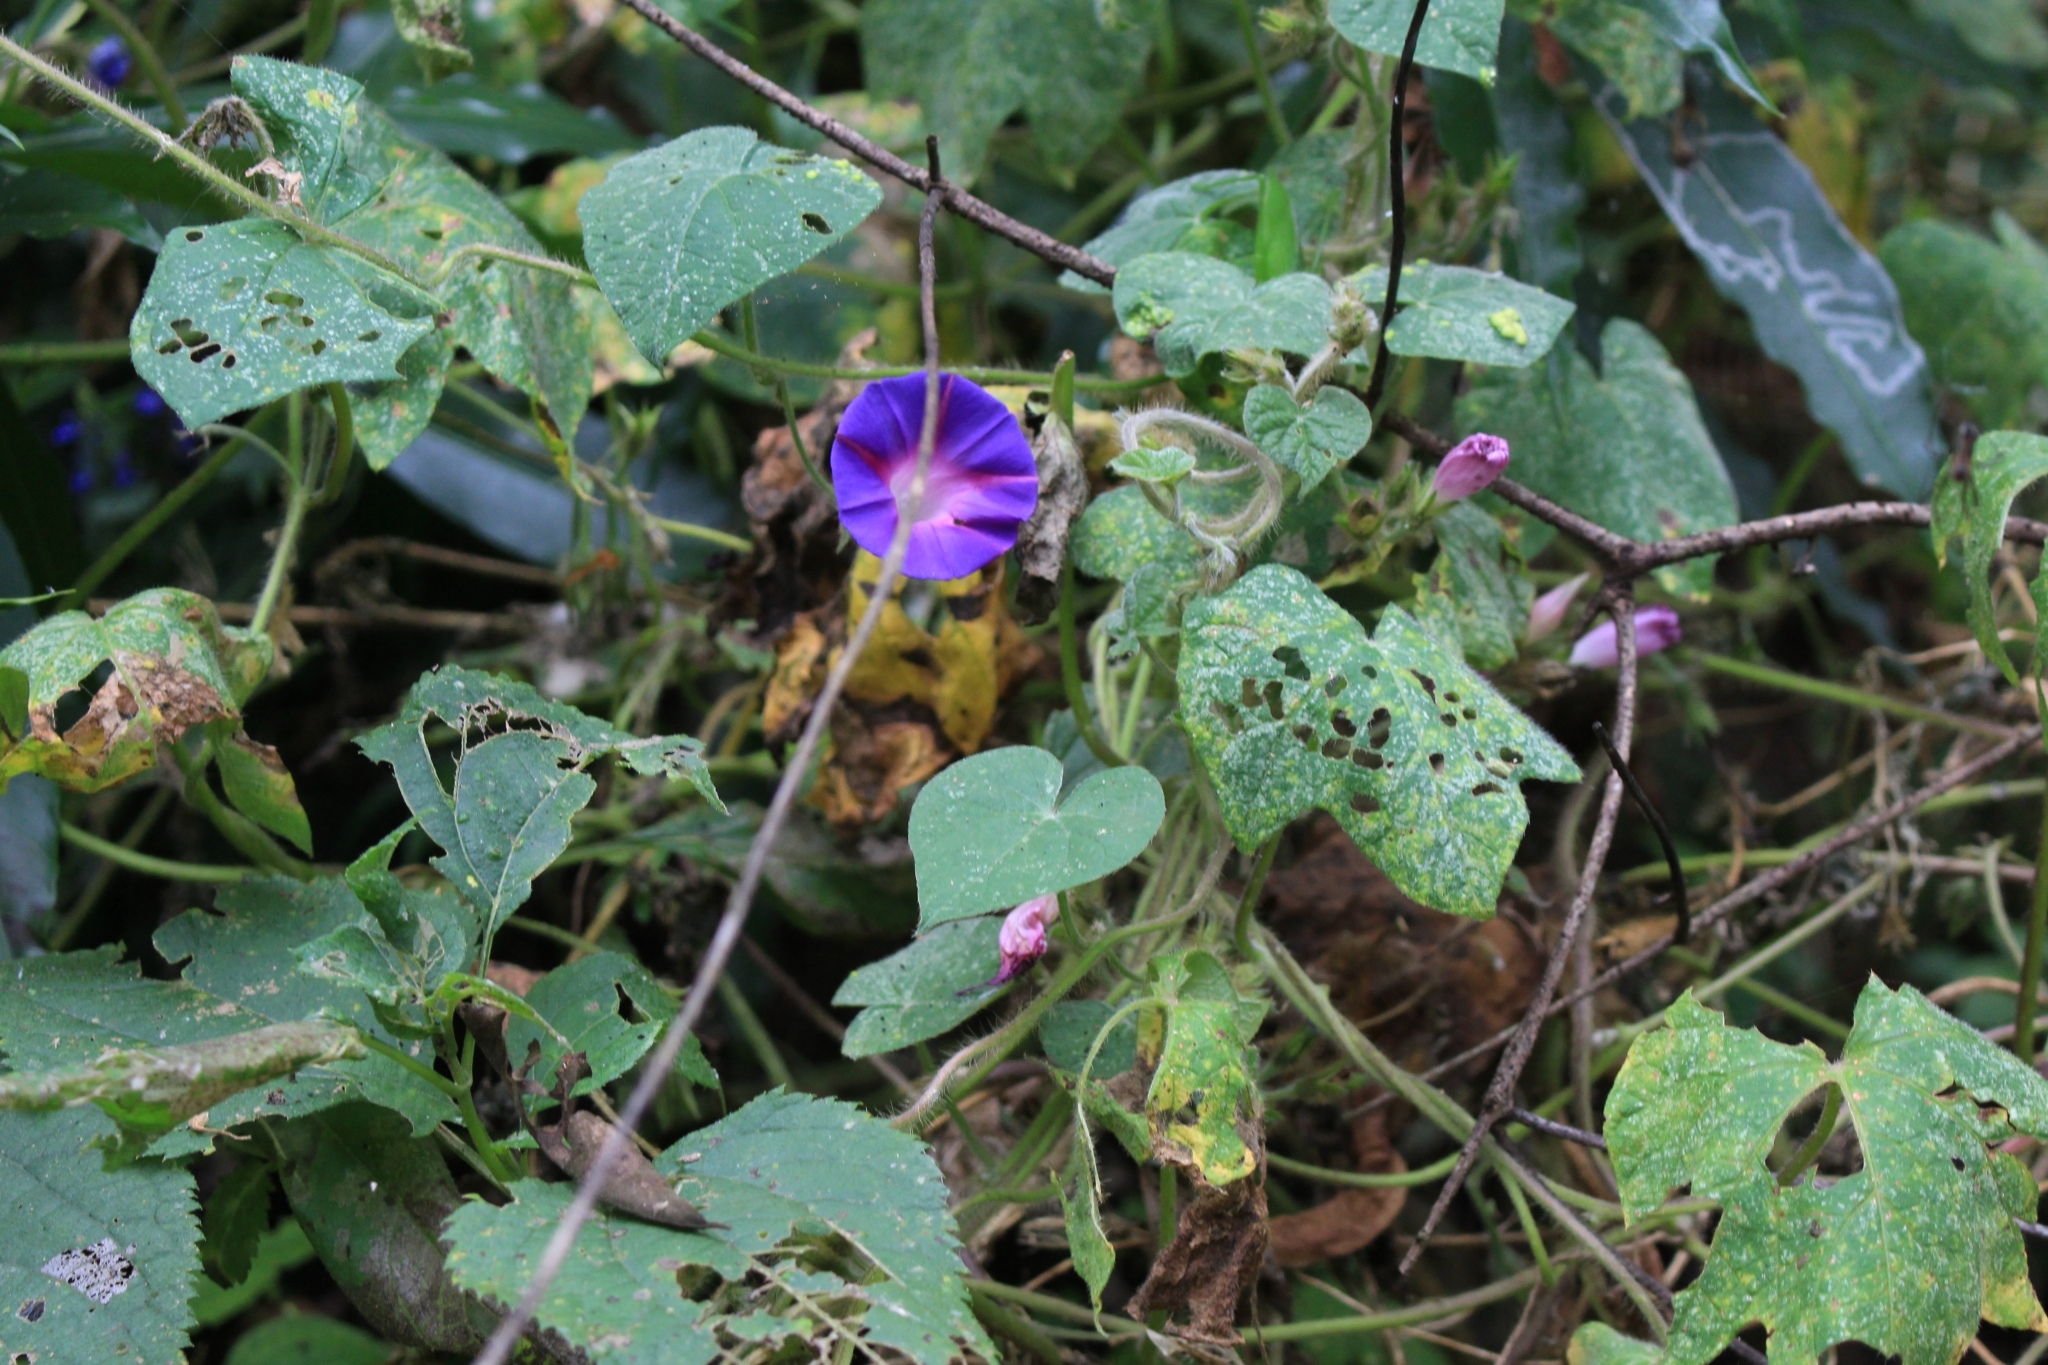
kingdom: Plantae
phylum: Tracheophyta
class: Magnoliopsida
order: Solanales
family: Convolvulaceae
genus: Ipomoea
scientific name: Ipomoea purpurea
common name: Common morning-glory
